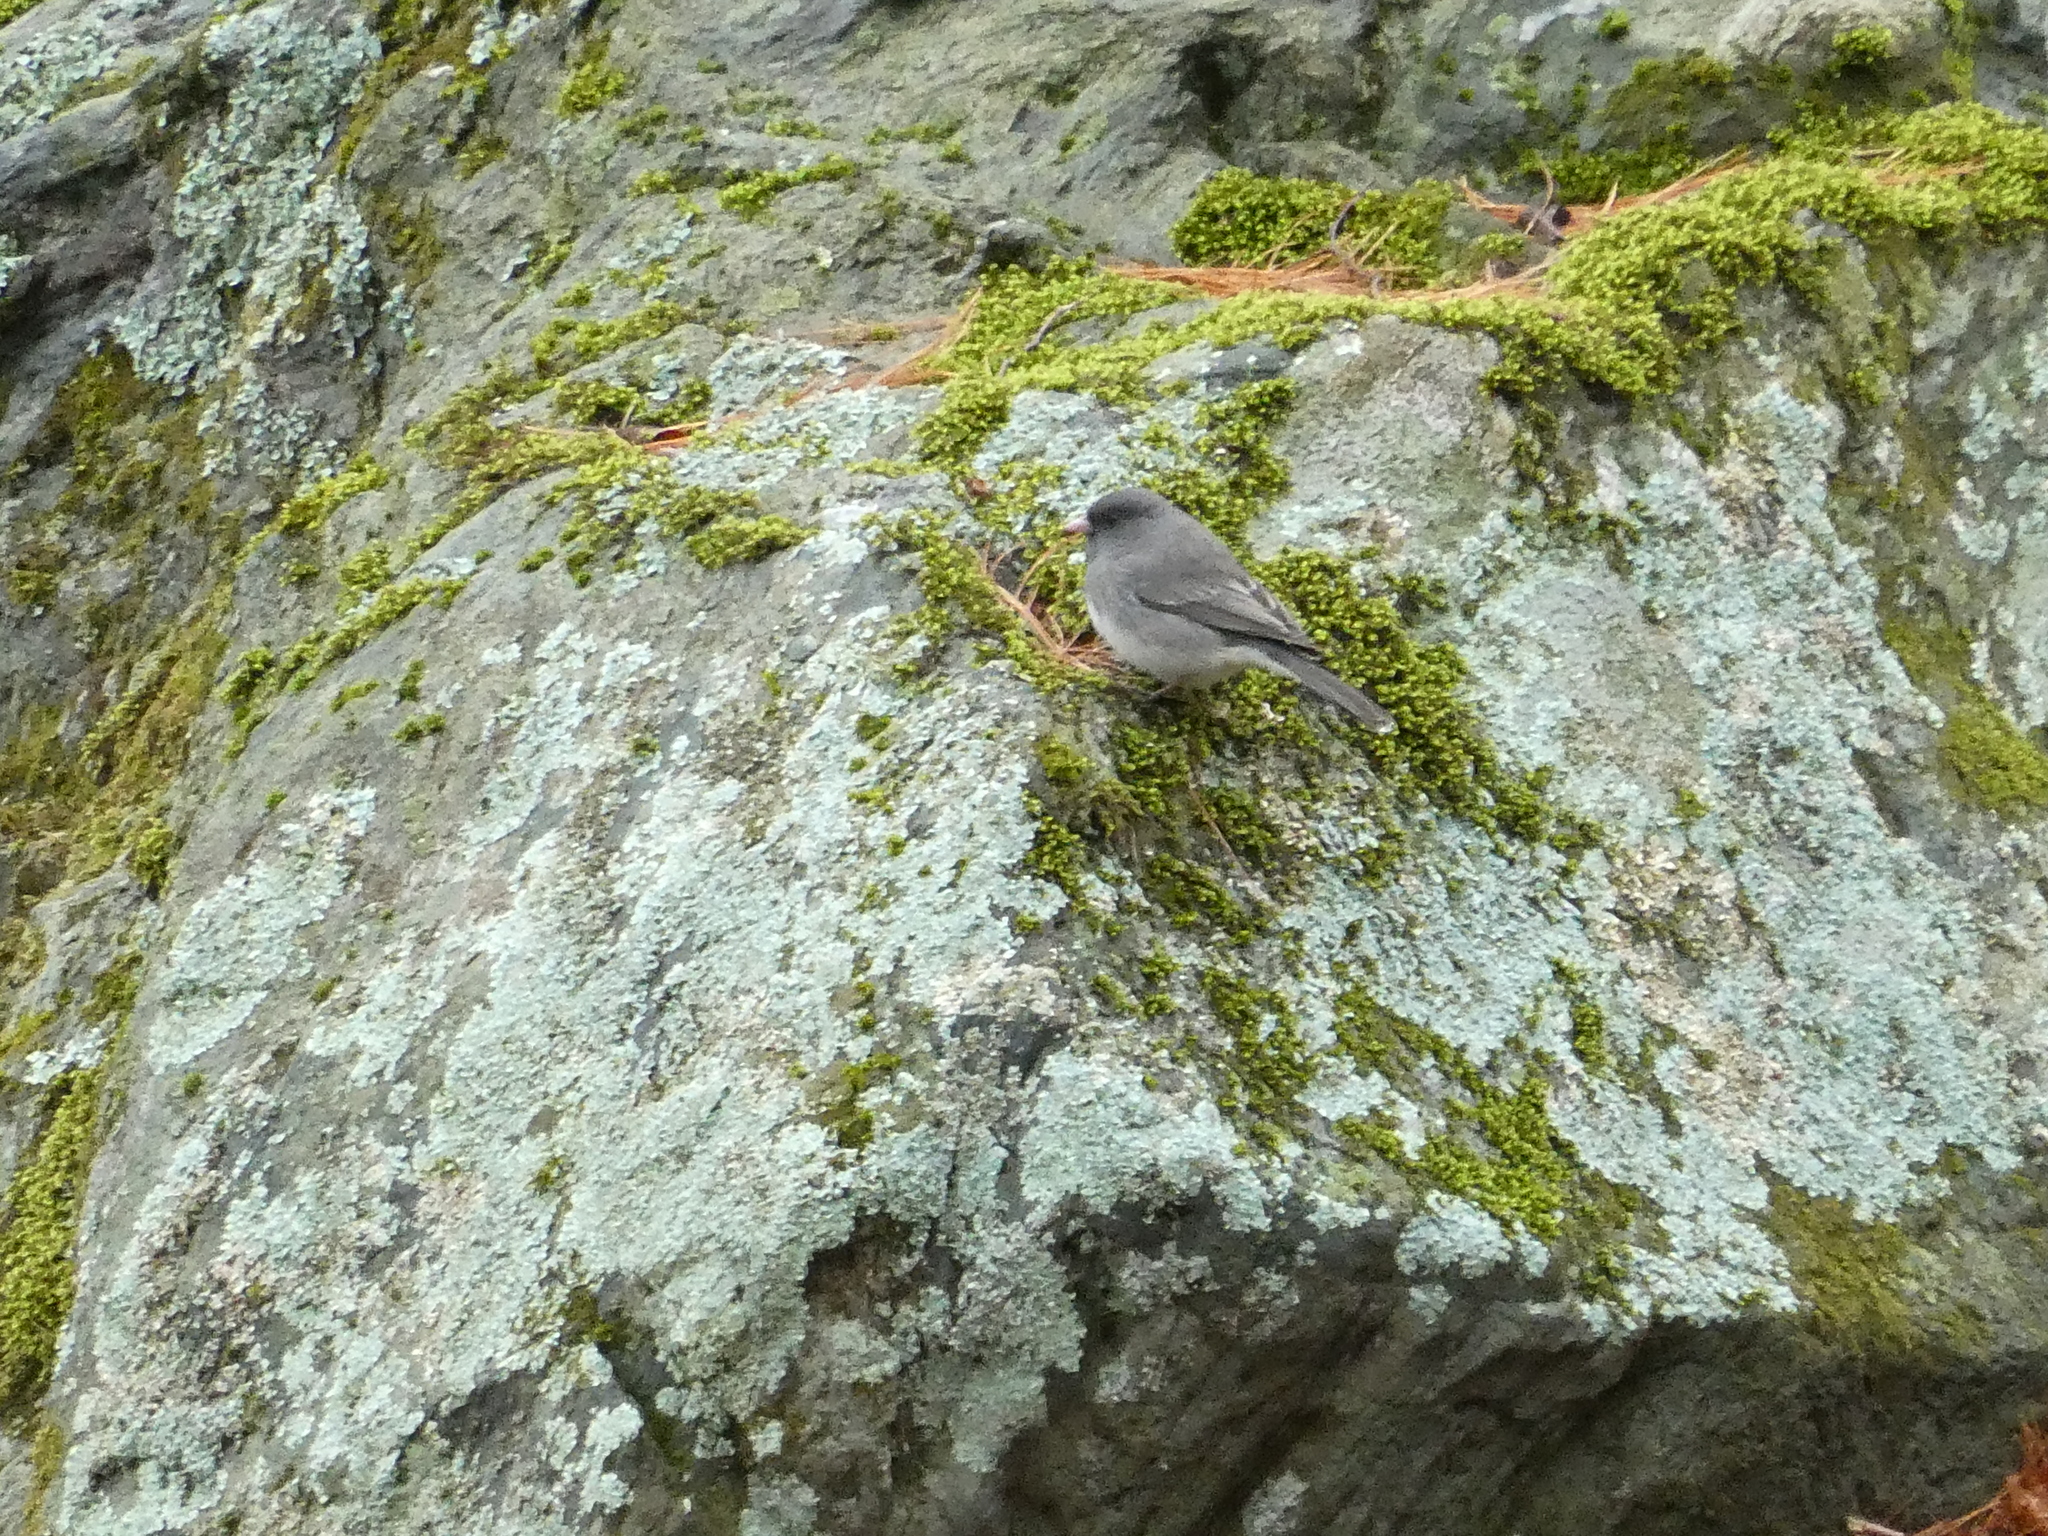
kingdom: Animalia
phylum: Chordata
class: Aves
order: Passeriformes
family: Passerellidae
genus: Junco
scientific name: Junco hyemalis
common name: Dark-eyed junco
